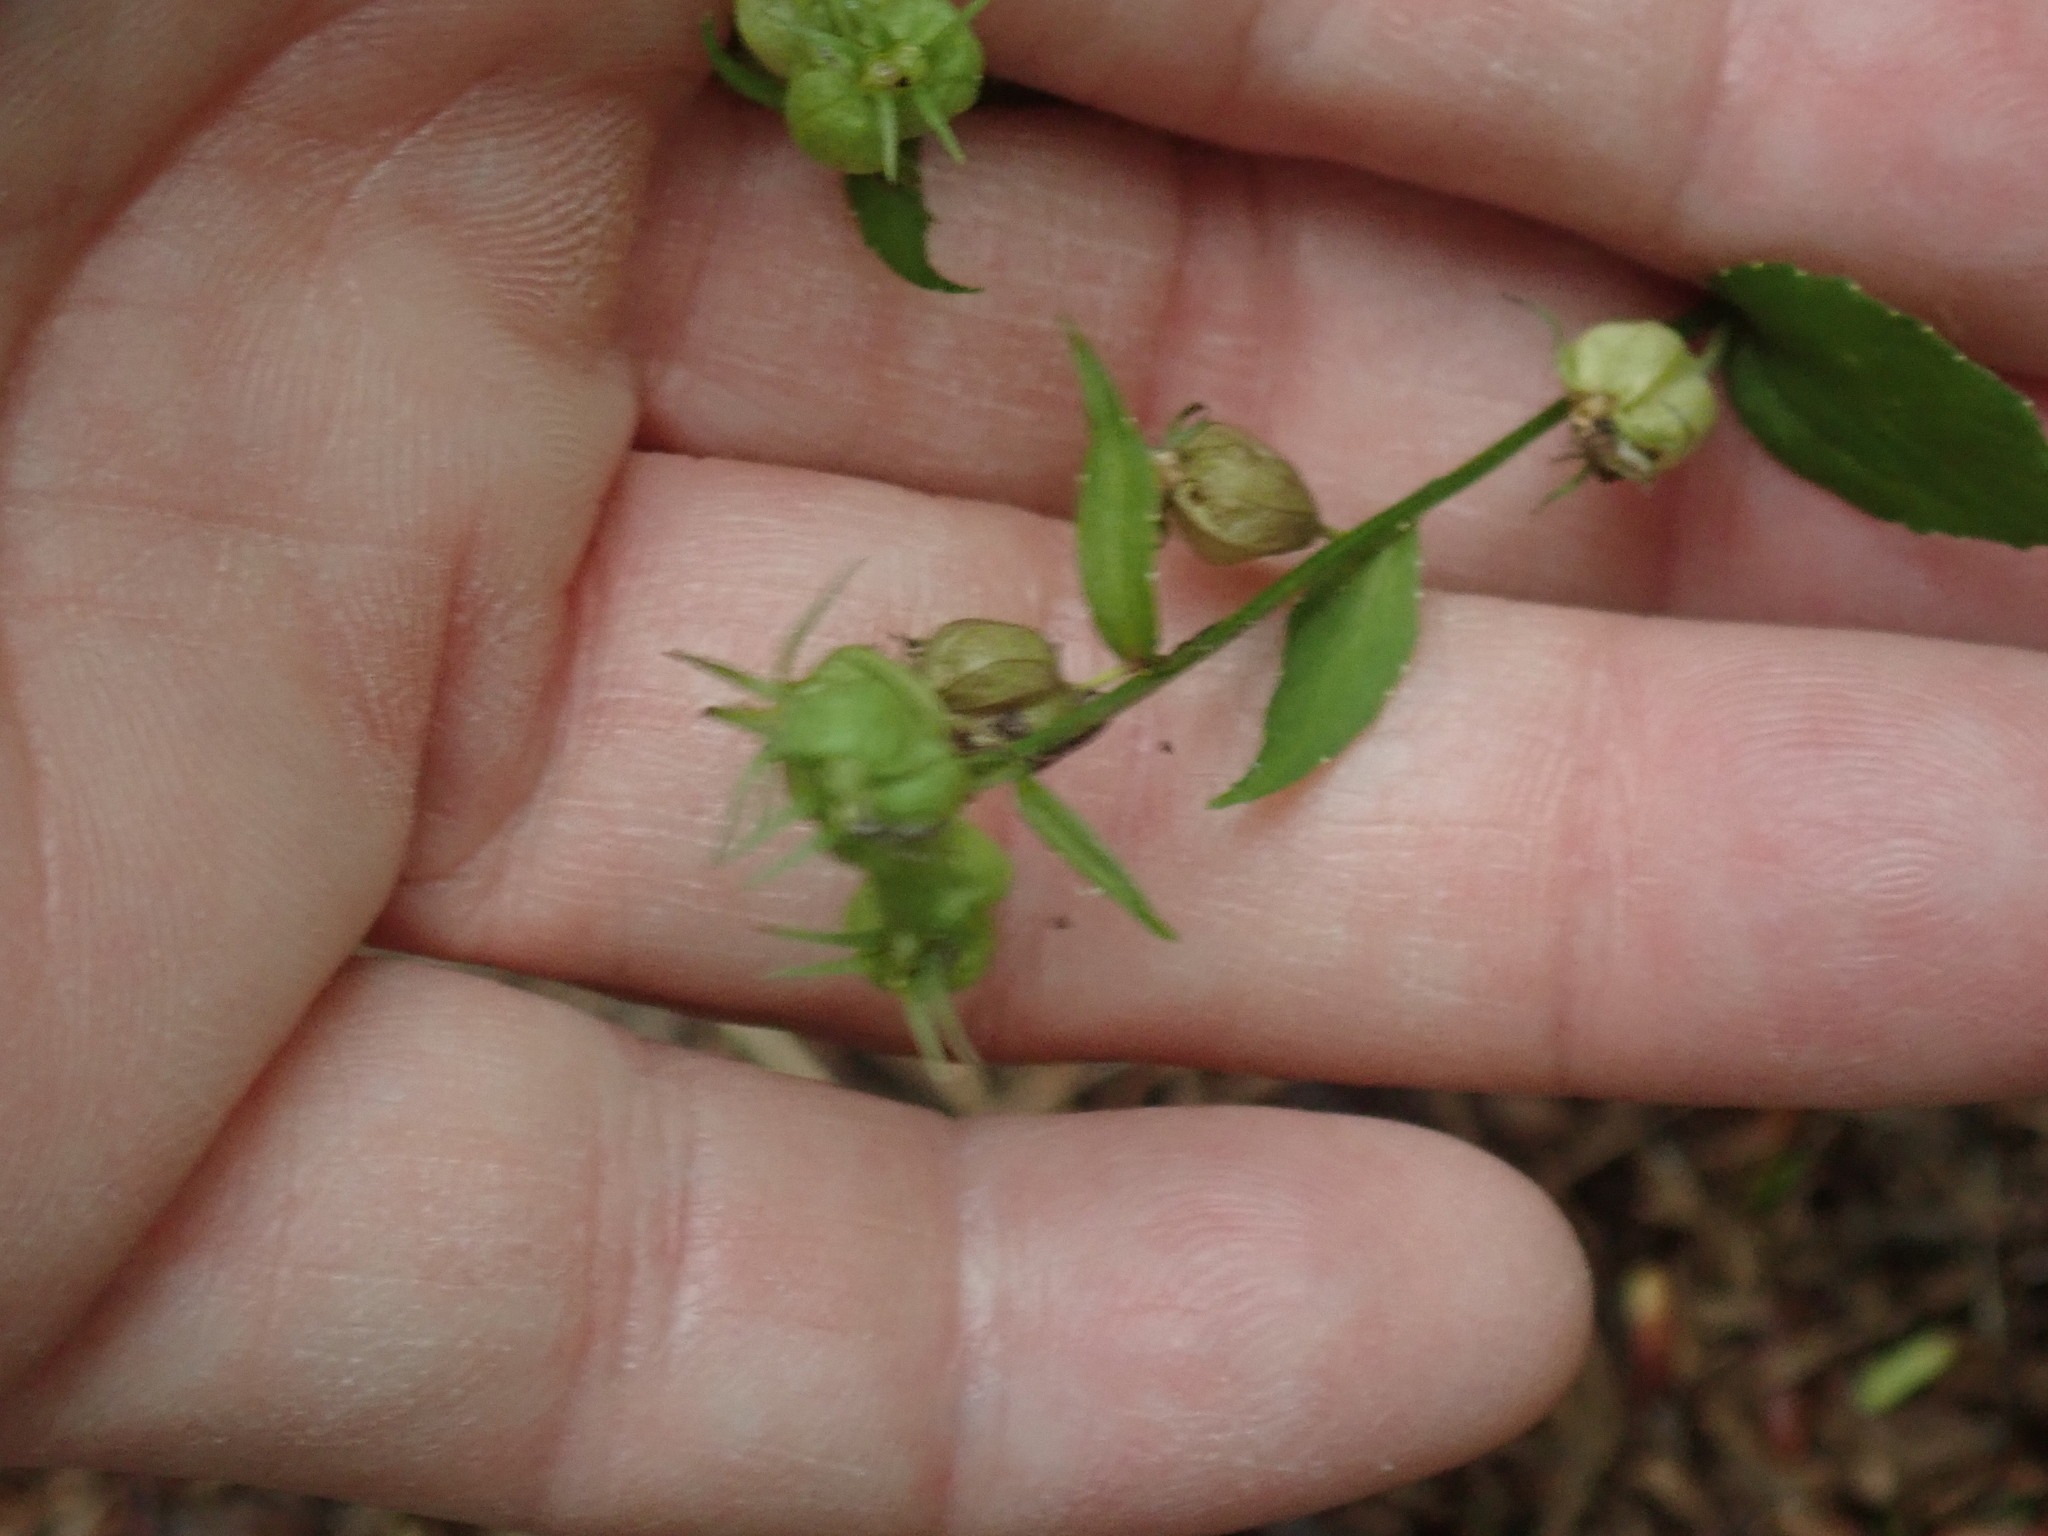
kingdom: Plantae
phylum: Tracheophyta
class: Magnoliopsida
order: Asterales
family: Campanulaceae
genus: Lobelia
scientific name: Lobelia inflata
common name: Indian tobacco
